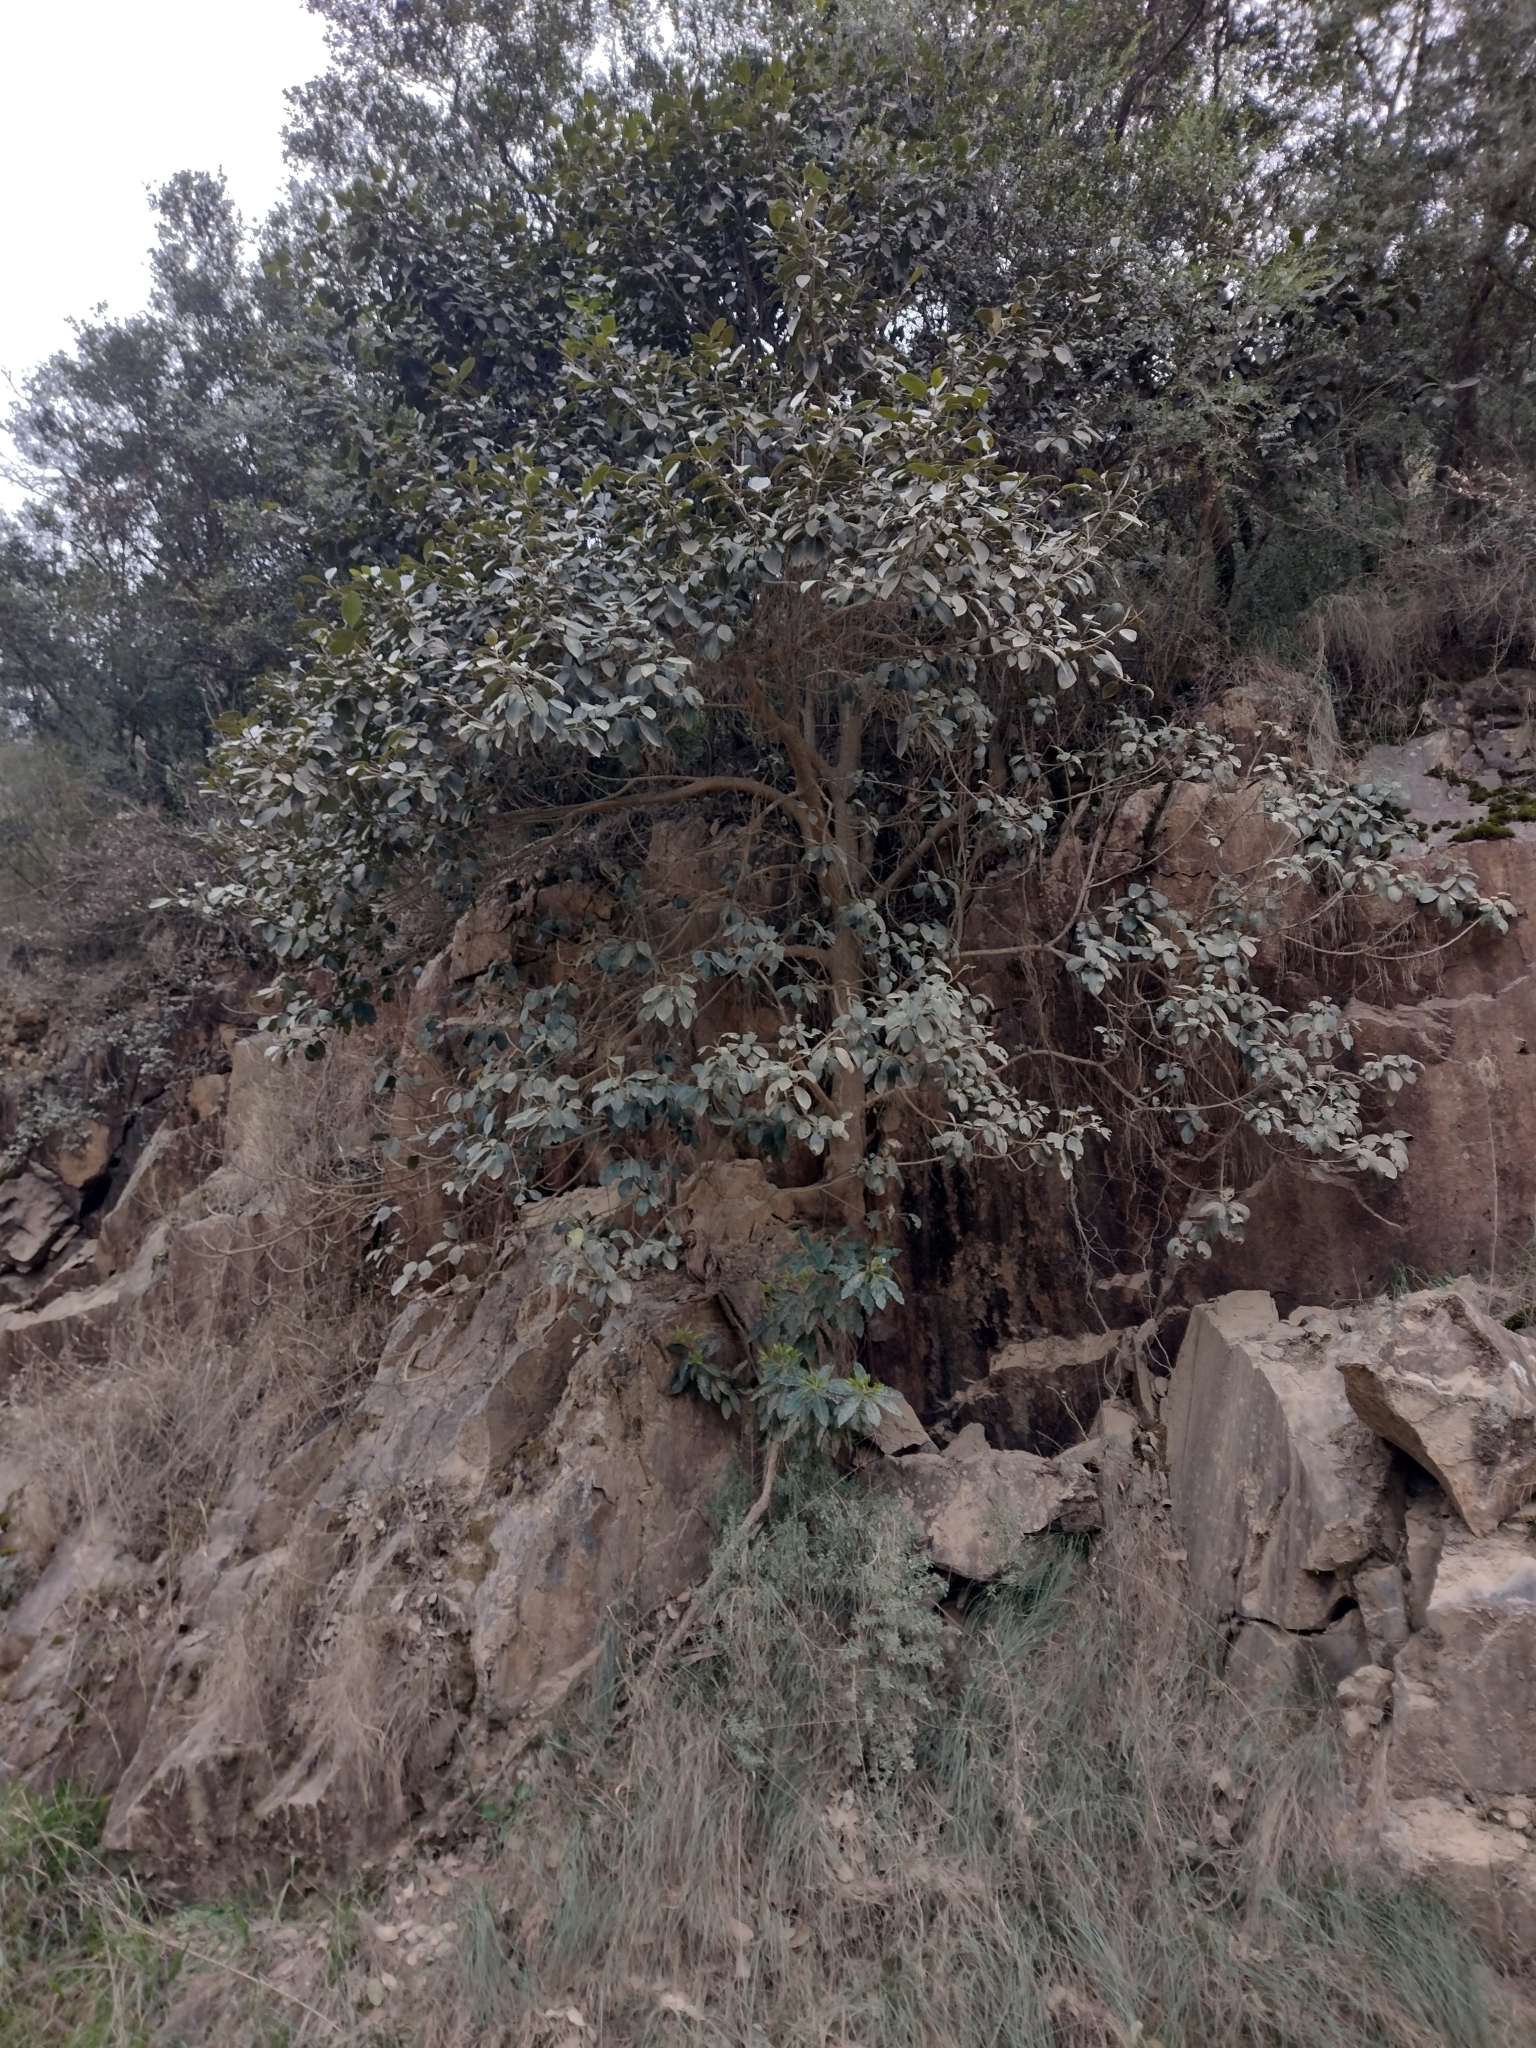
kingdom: Plantae
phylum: Tracheophyta
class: Magnoliopsida
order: Rosales
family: Moraceae
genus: Ficus
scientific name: Ficus rubiginosa
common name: Port jackson fig
